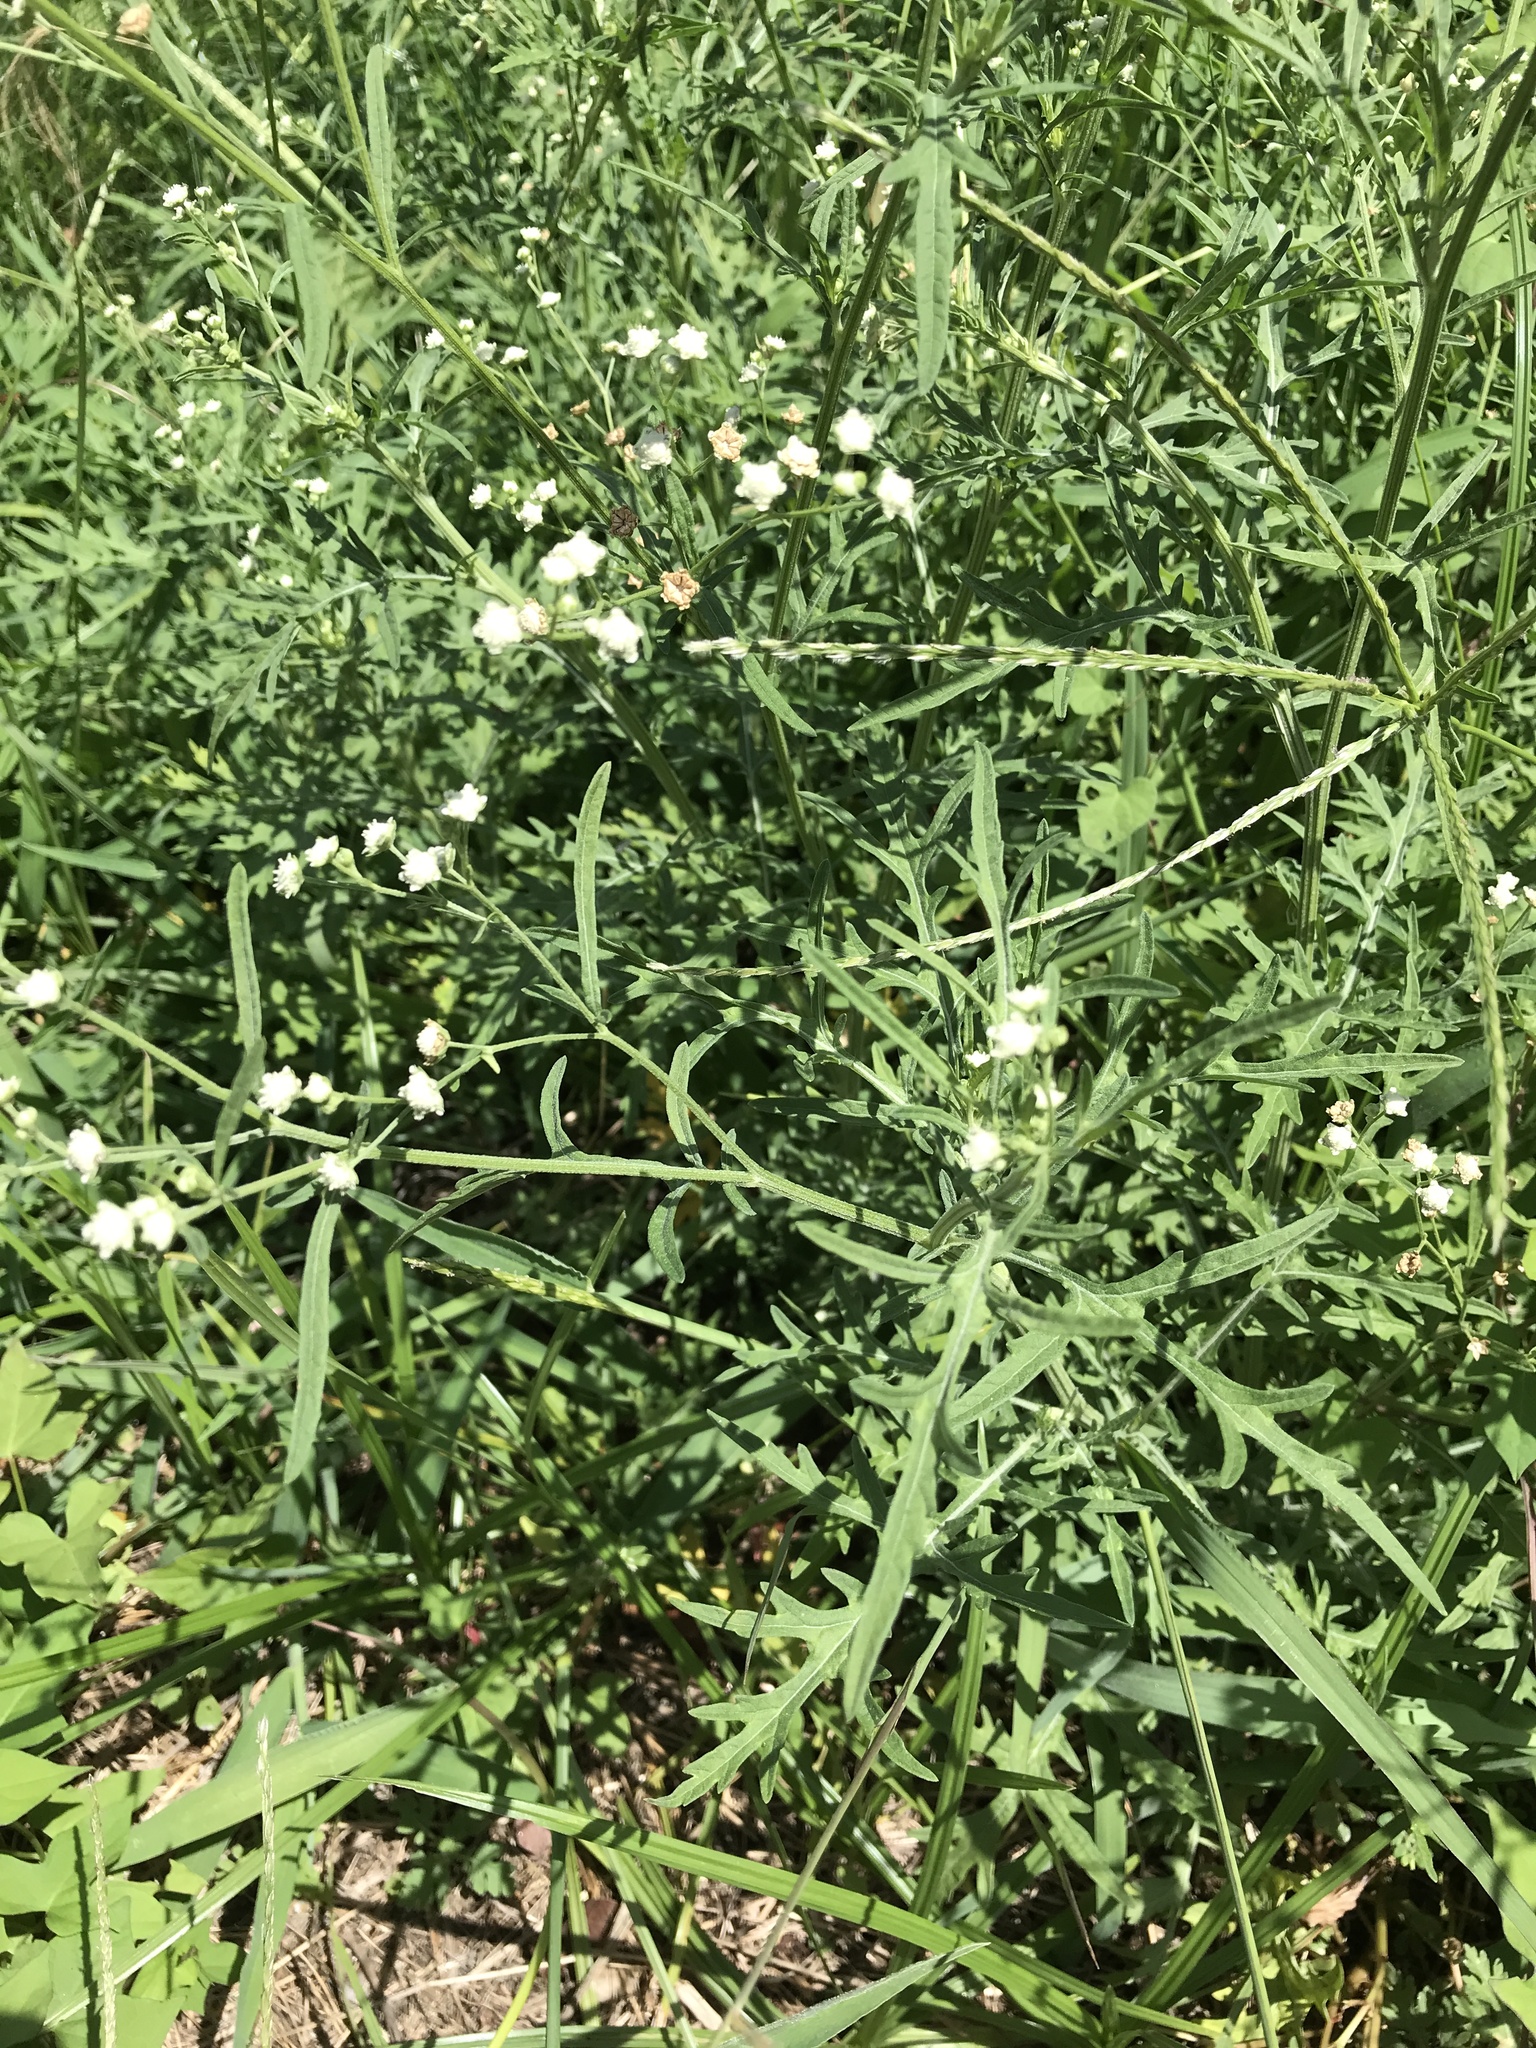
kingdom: Plantae
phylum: Tracheophyta
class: Magnoliopsida
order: Asterales
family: Asteraceae
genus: Parthenium
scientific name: Parthenium hysterophorus
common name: Santa maria feverfew
